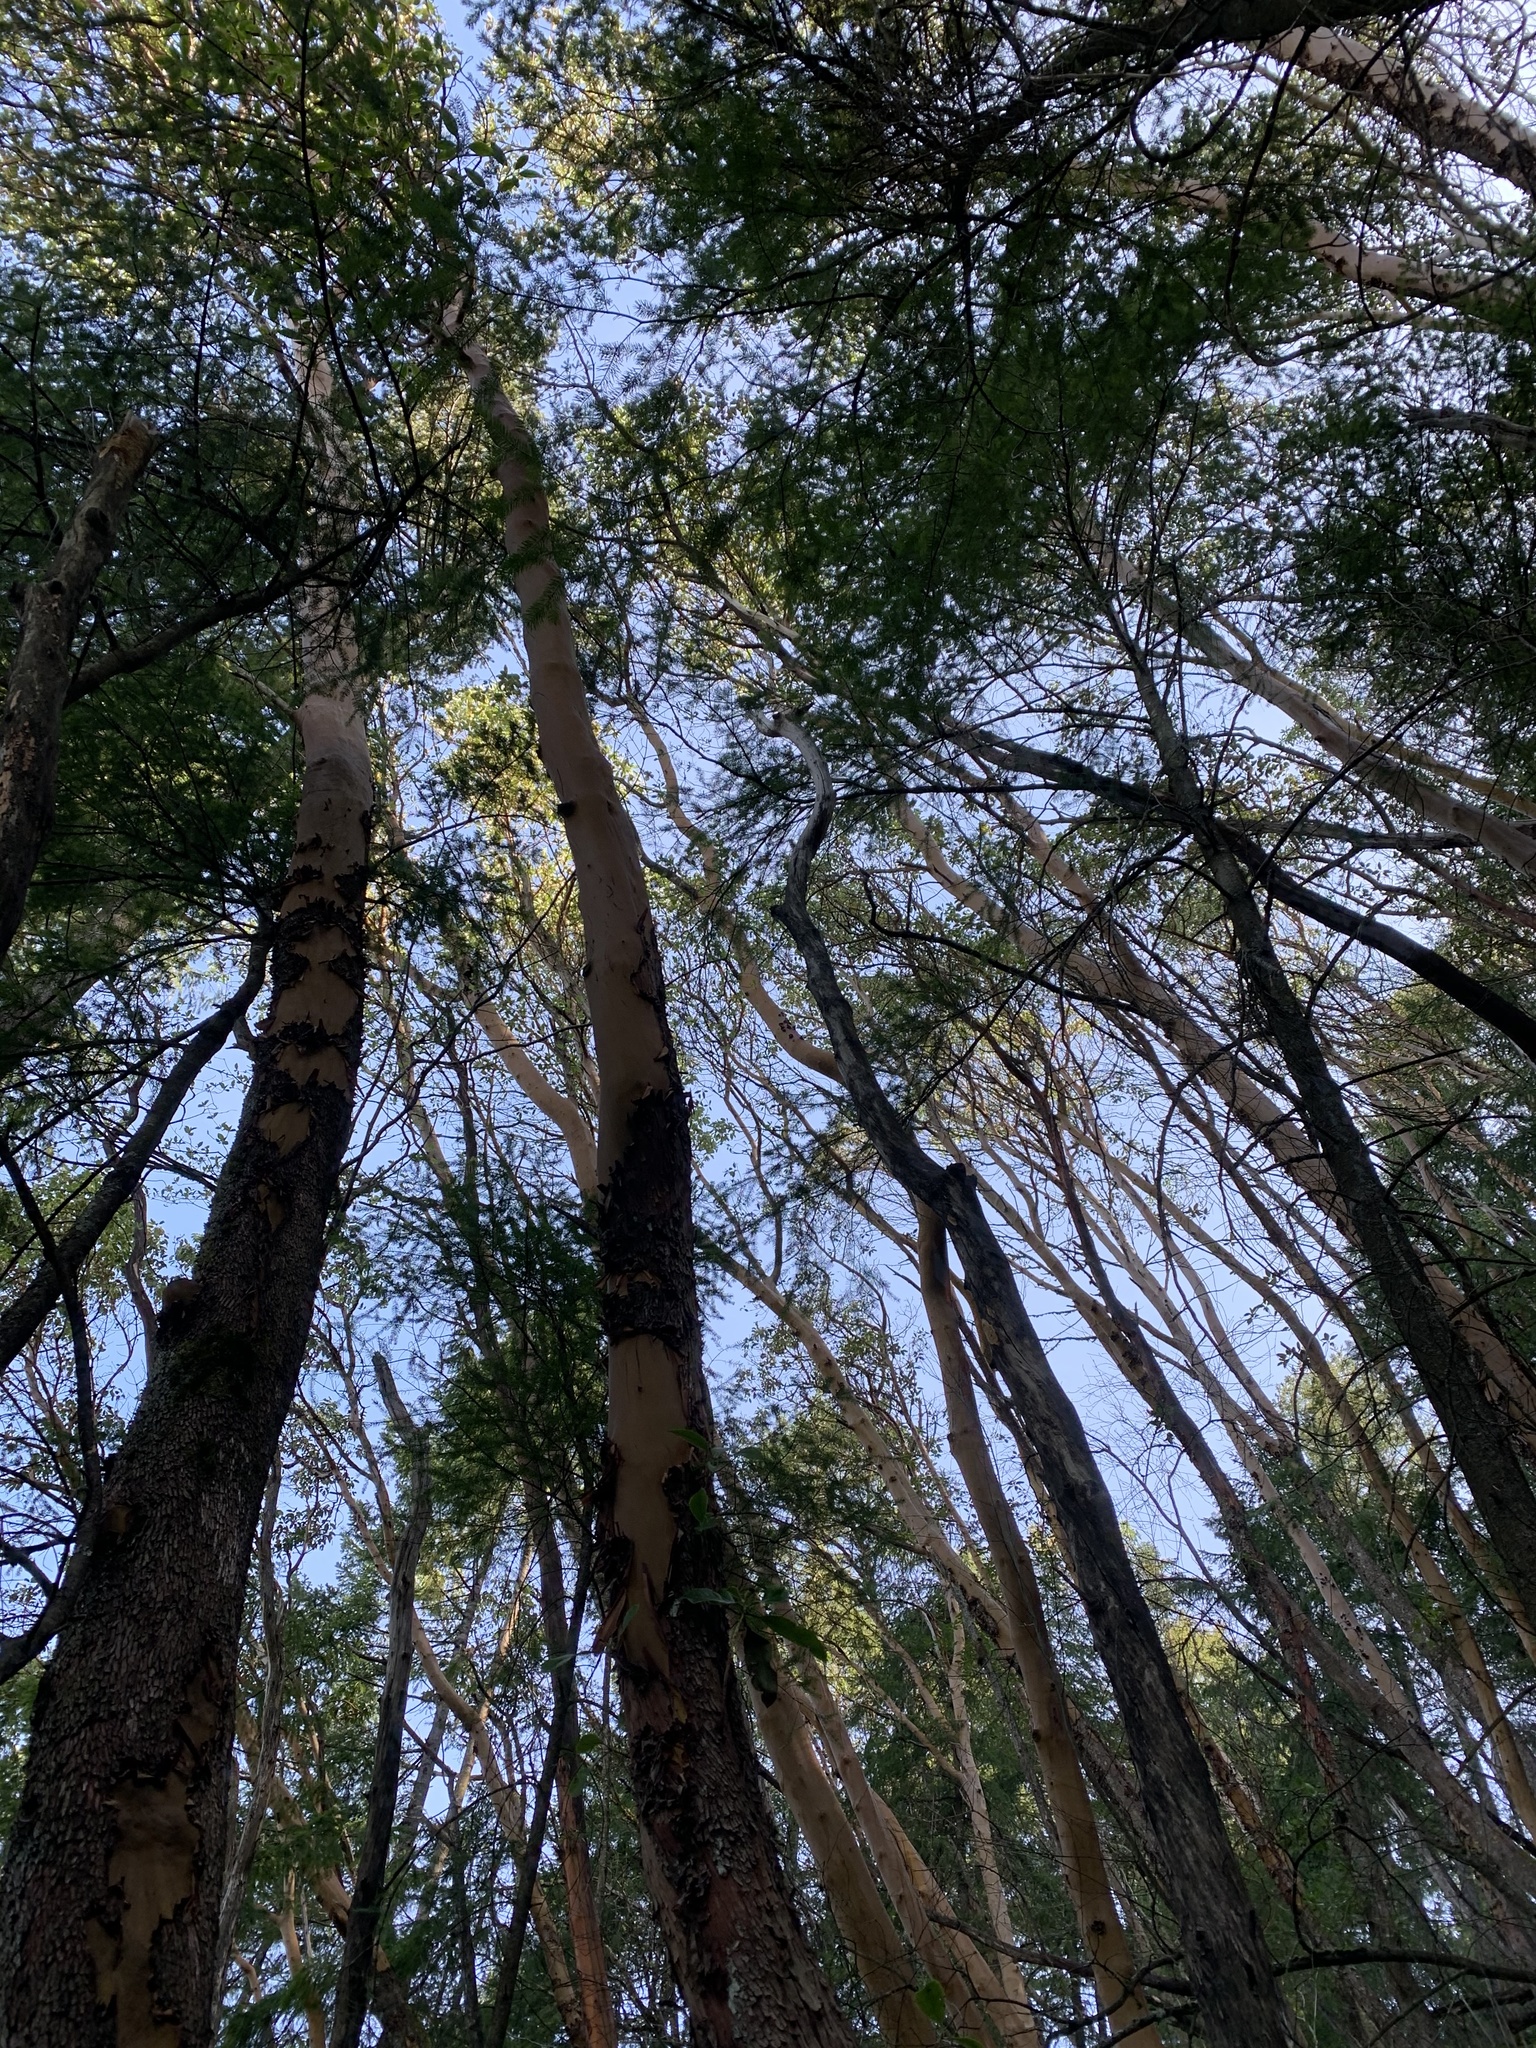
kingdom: Plantae
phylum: Tracheophyta
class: Magnoliopsida
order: Ericales
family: Ericaceae
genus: Arbutus
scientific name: Arbutus menziesii
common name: Pacific madrone
